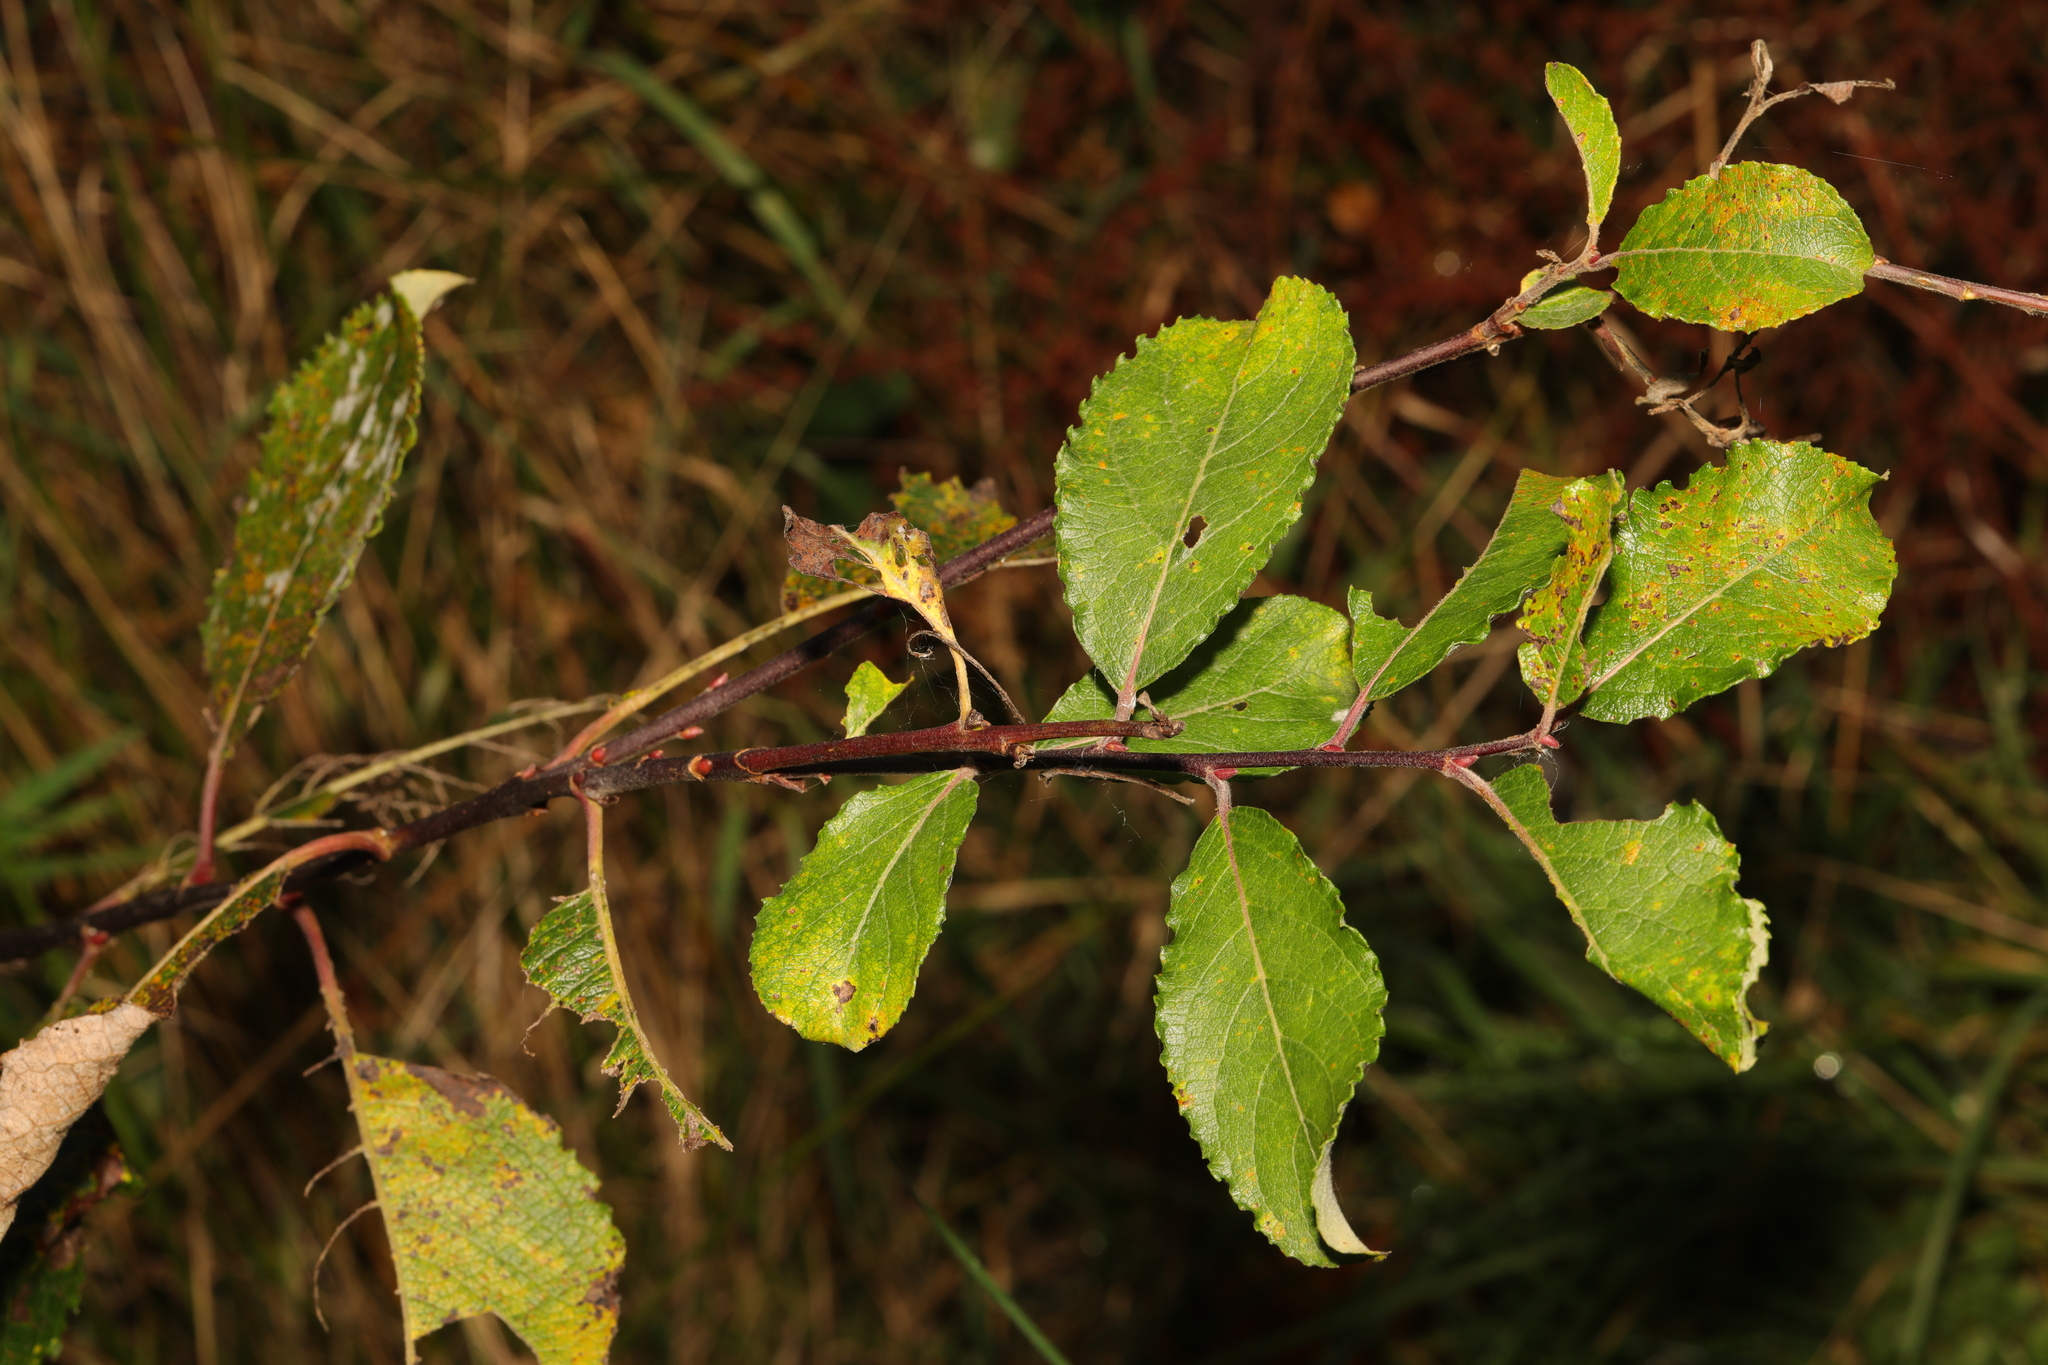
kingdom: Plantae
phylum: Tracheophyta
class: Magnoliopsida
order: Malpighiales
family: Salicaceae
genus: Salix
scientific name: Salix caprea
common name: Goat willow
